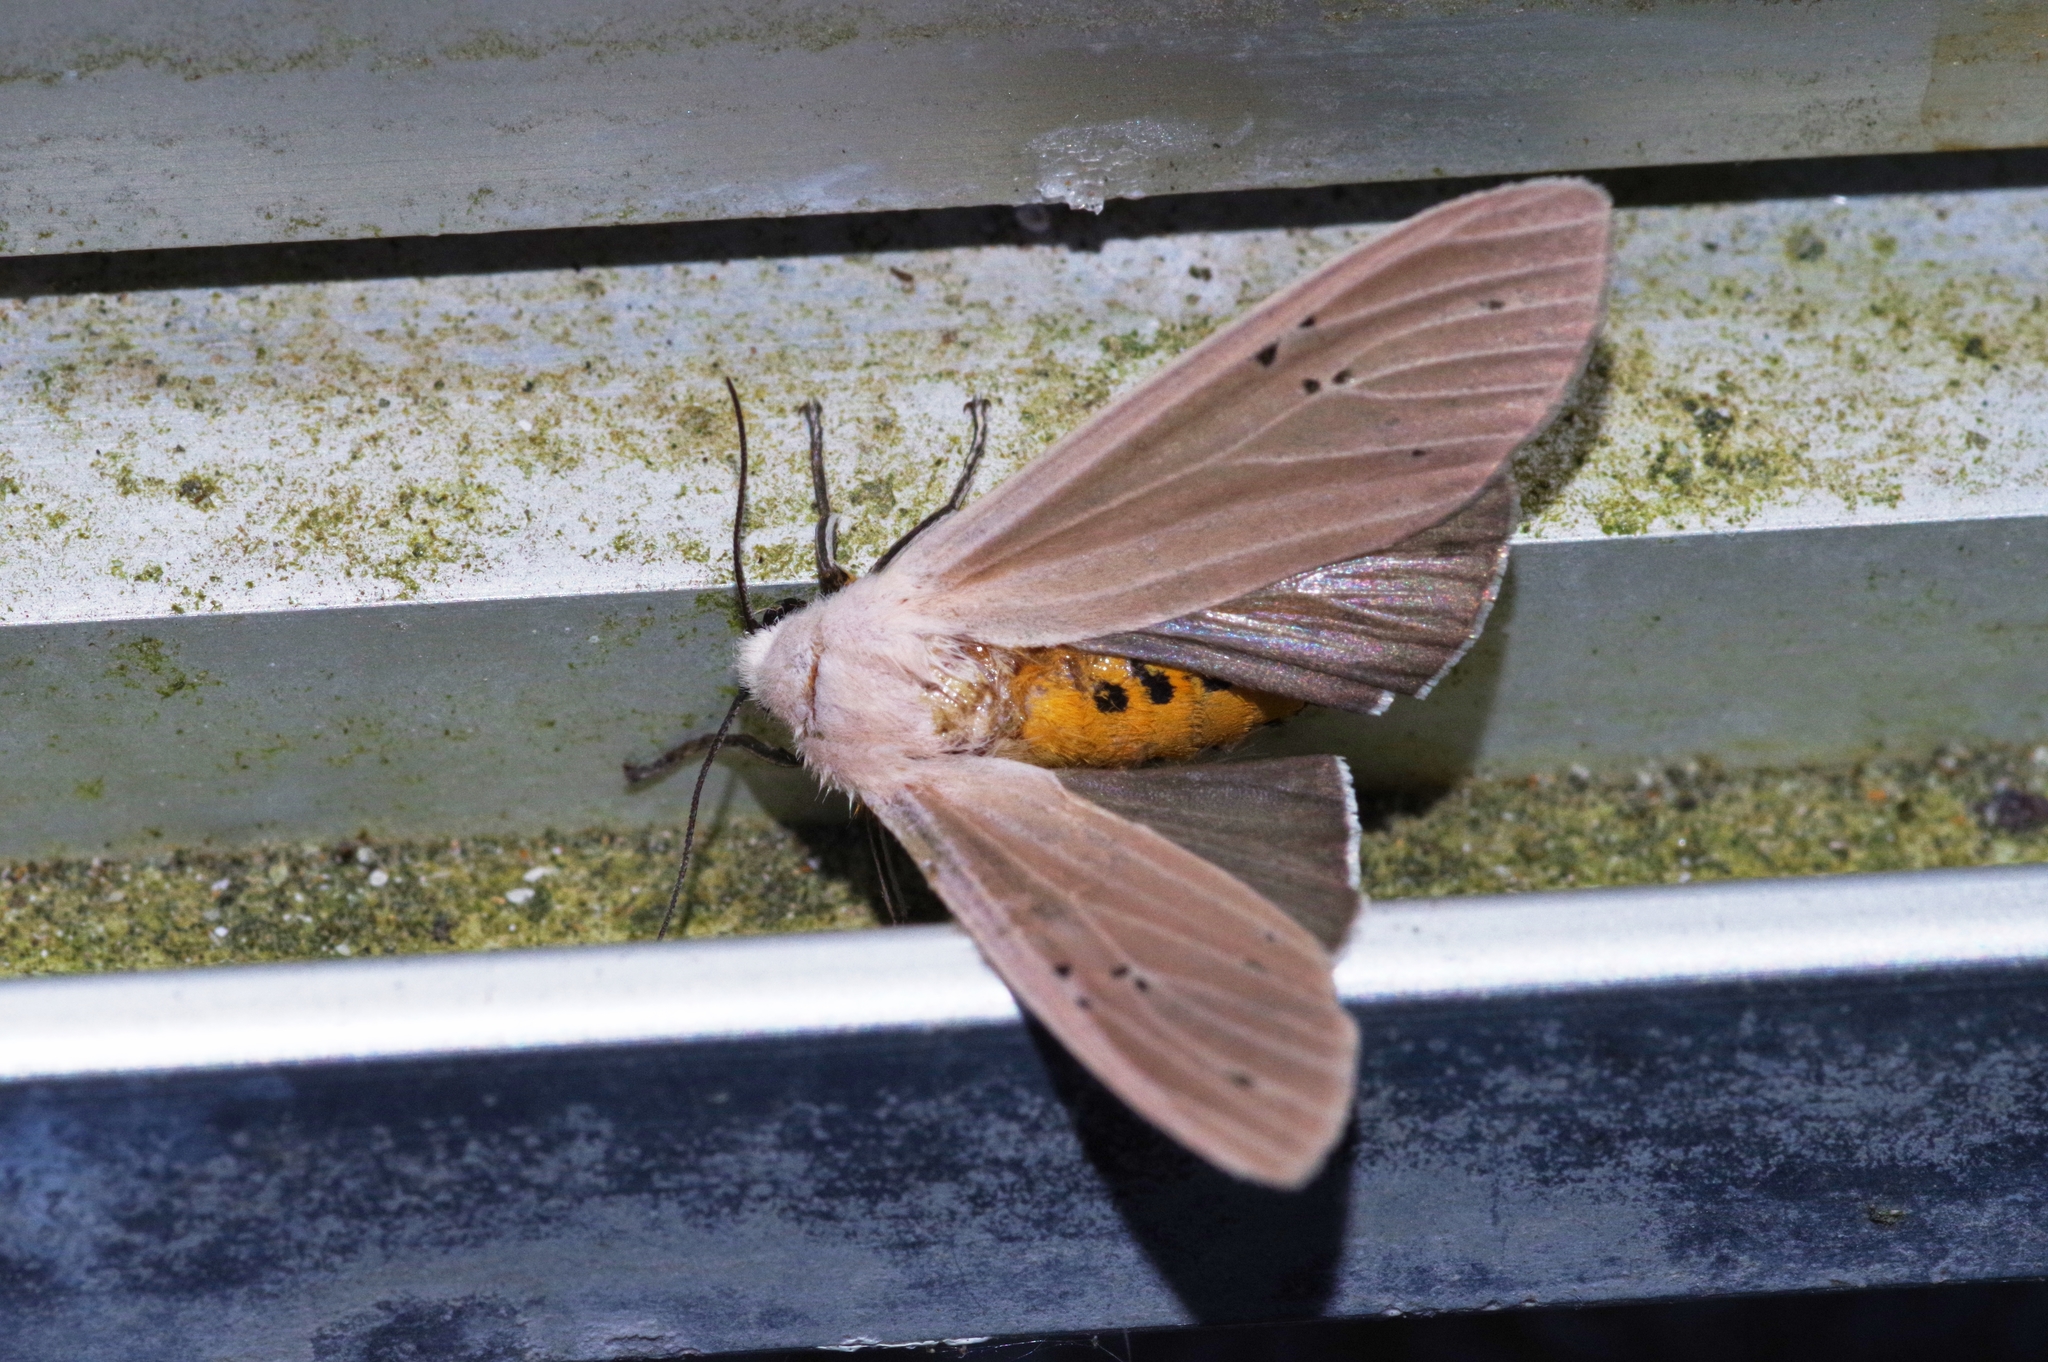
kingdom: Animalia
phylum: Arthropoda
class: Insecta
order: Lepidoptera
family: Erebidae
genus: Creatonotos
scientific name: Creatonotos transiens
